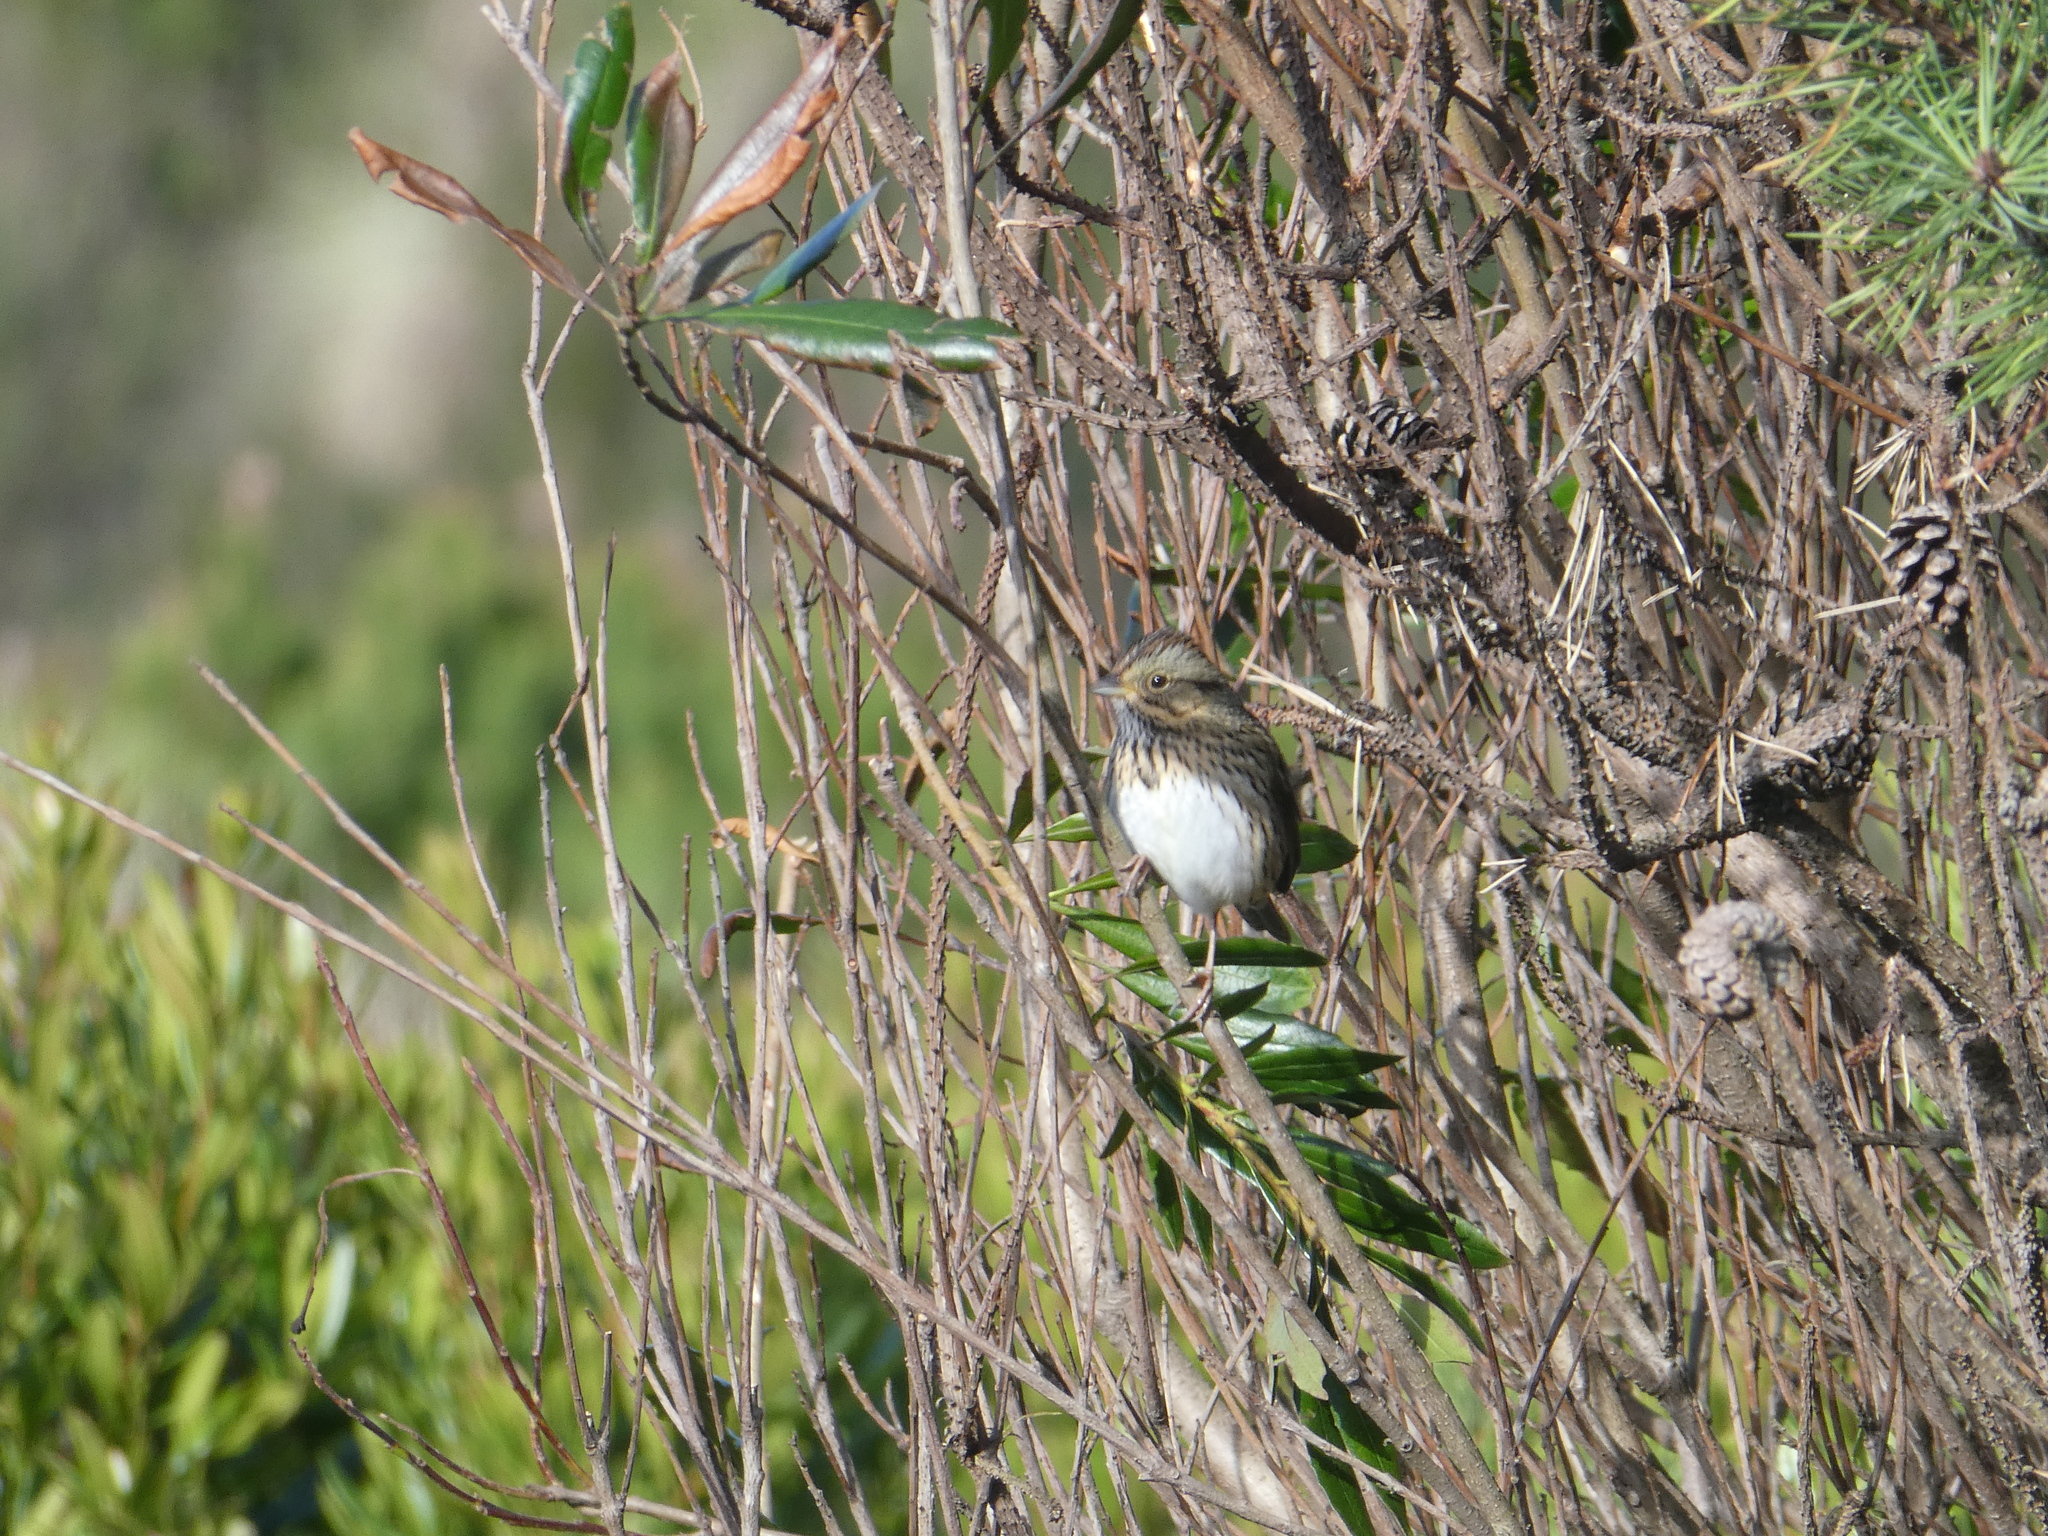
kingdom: Animalia
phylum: Chordata
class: Aves
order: Passeriformes
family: Passerellidae
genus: Melospiza
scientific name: Melospiza lincolnii
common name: Lincoln's sparrow
